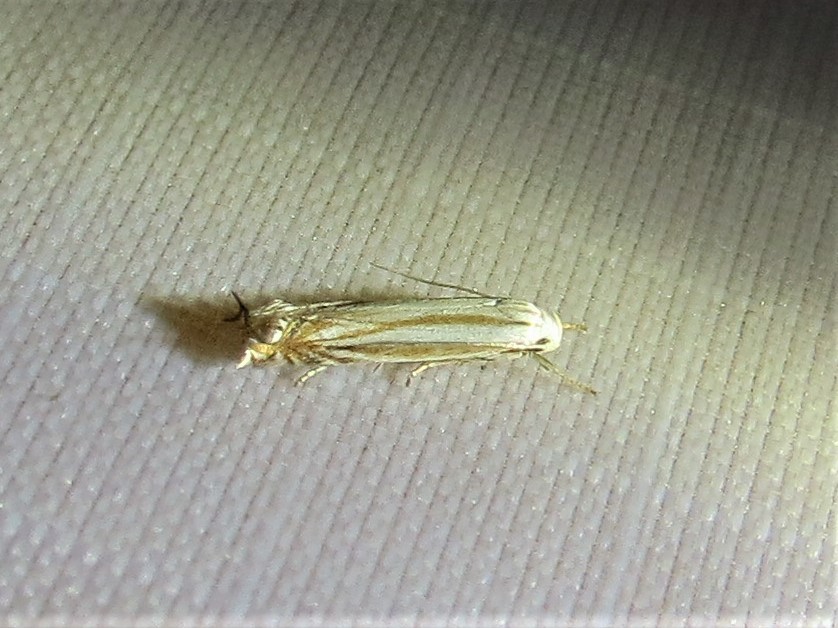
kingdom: Animalia
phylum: Arthropoda
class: Insecta
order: Lepidoptera
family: Gelechiidae
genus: Polyhymno
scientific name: Polyhymno luteostrigella
